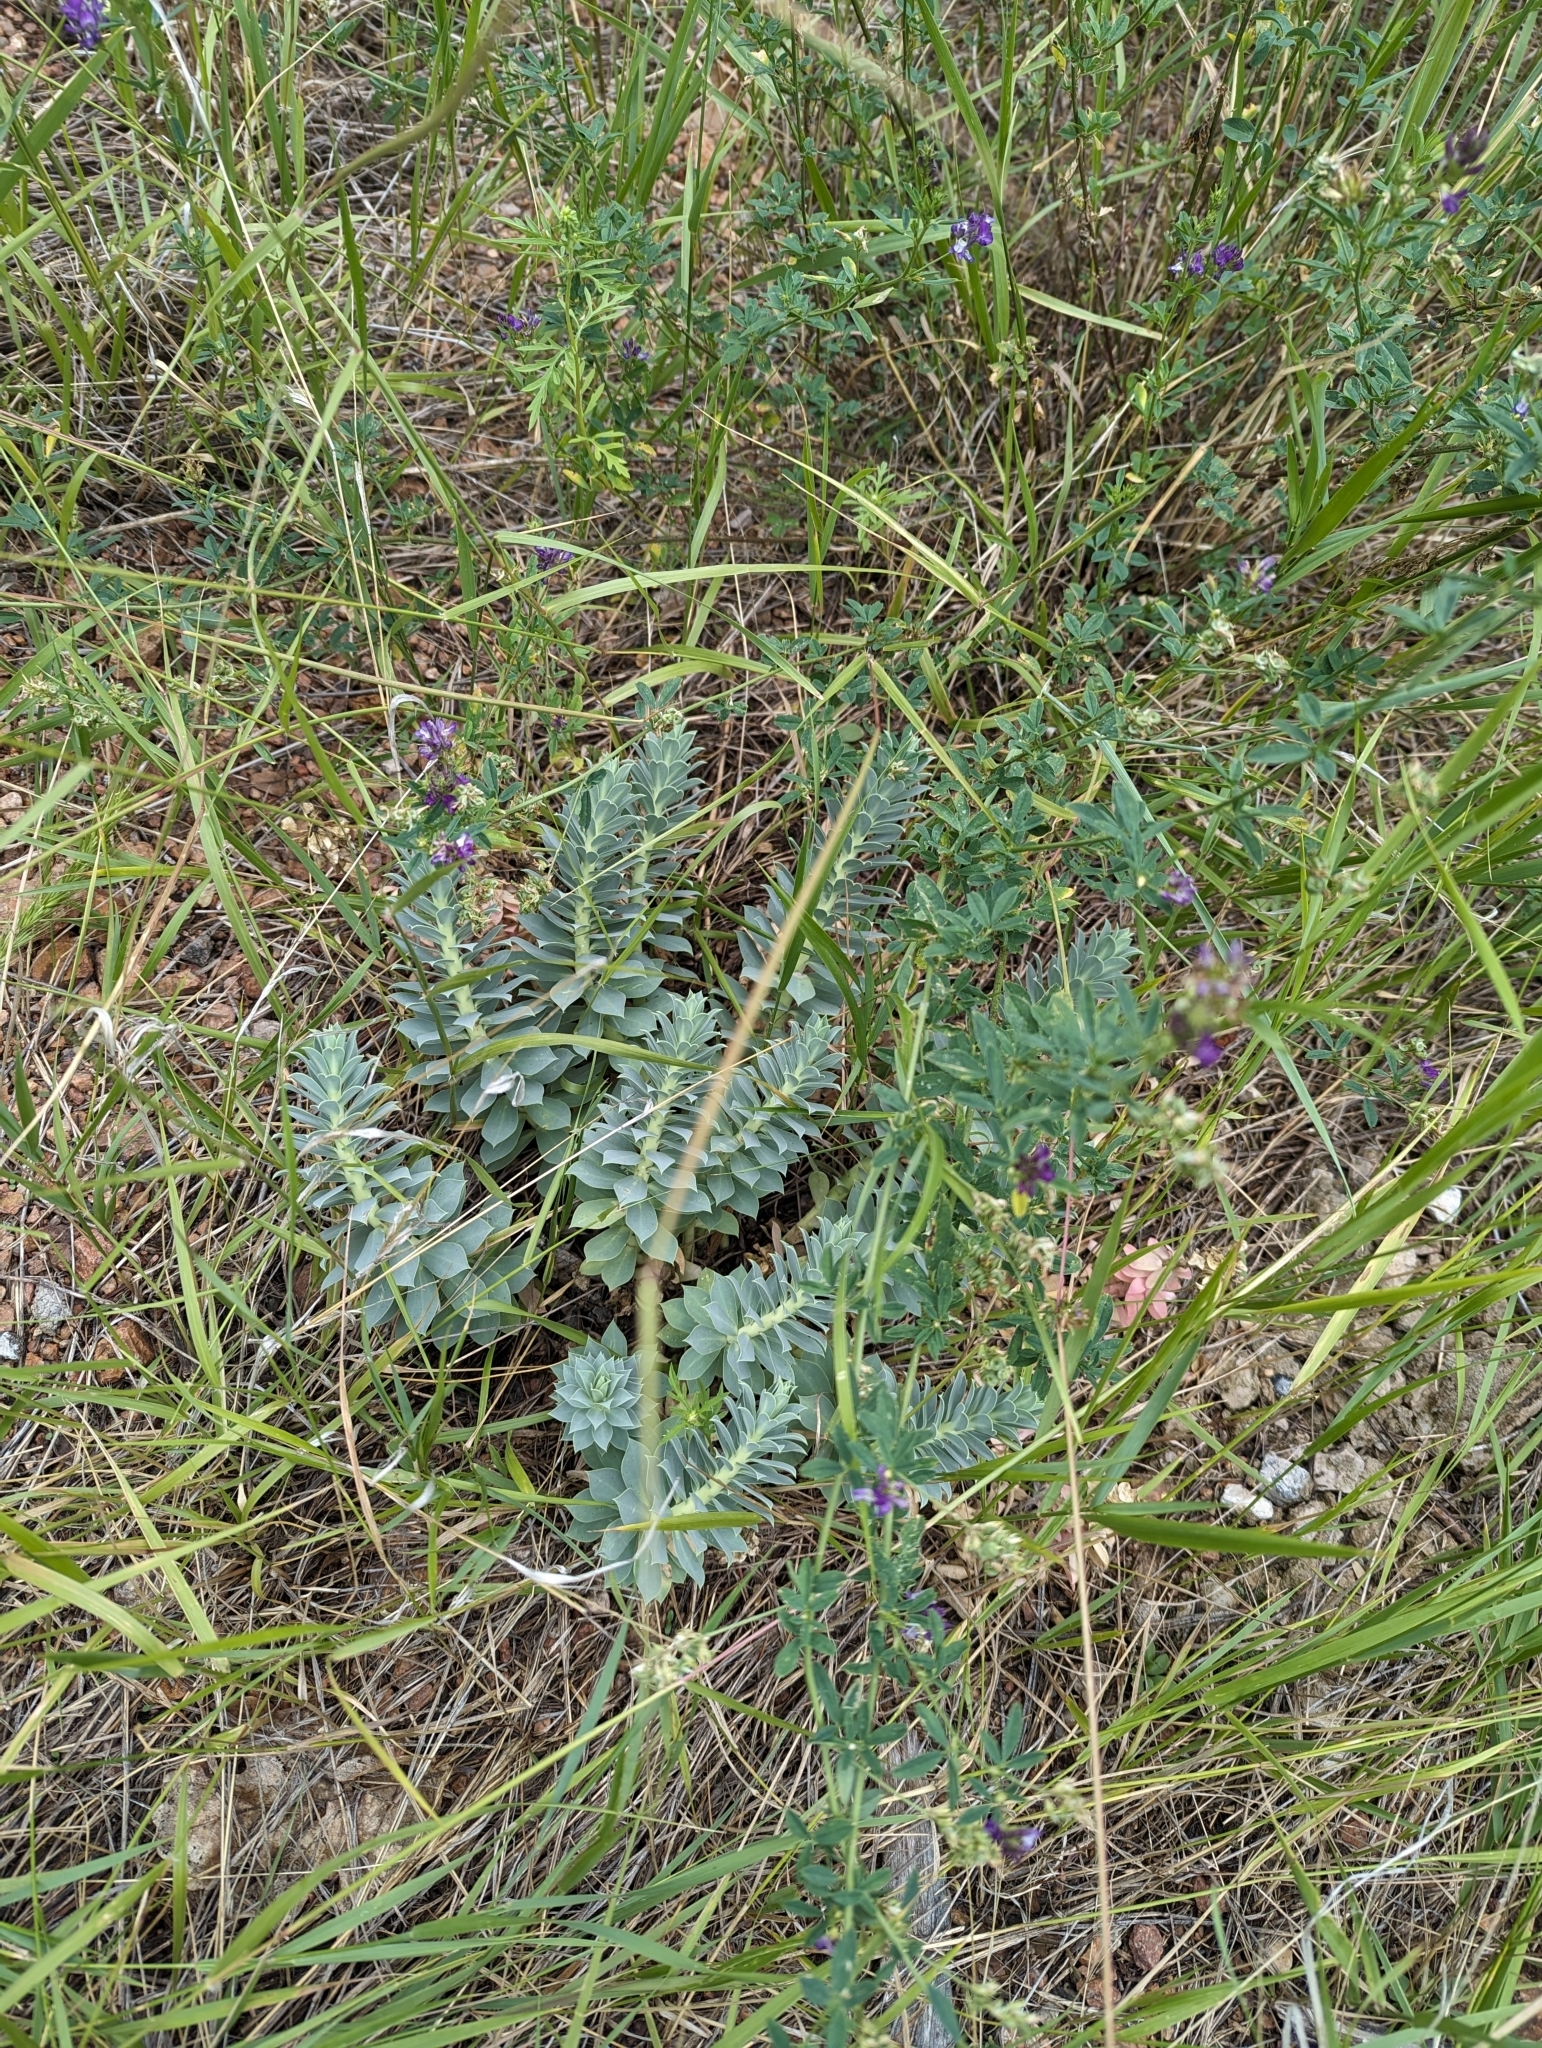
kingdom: Plantae
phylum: Tracheophyta
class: Magnoliopsida
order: Malpighiales
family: Euphorbiaceae
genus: Euphorbia
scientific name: Euphorbia myrsinites
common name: Myrtle spurge
